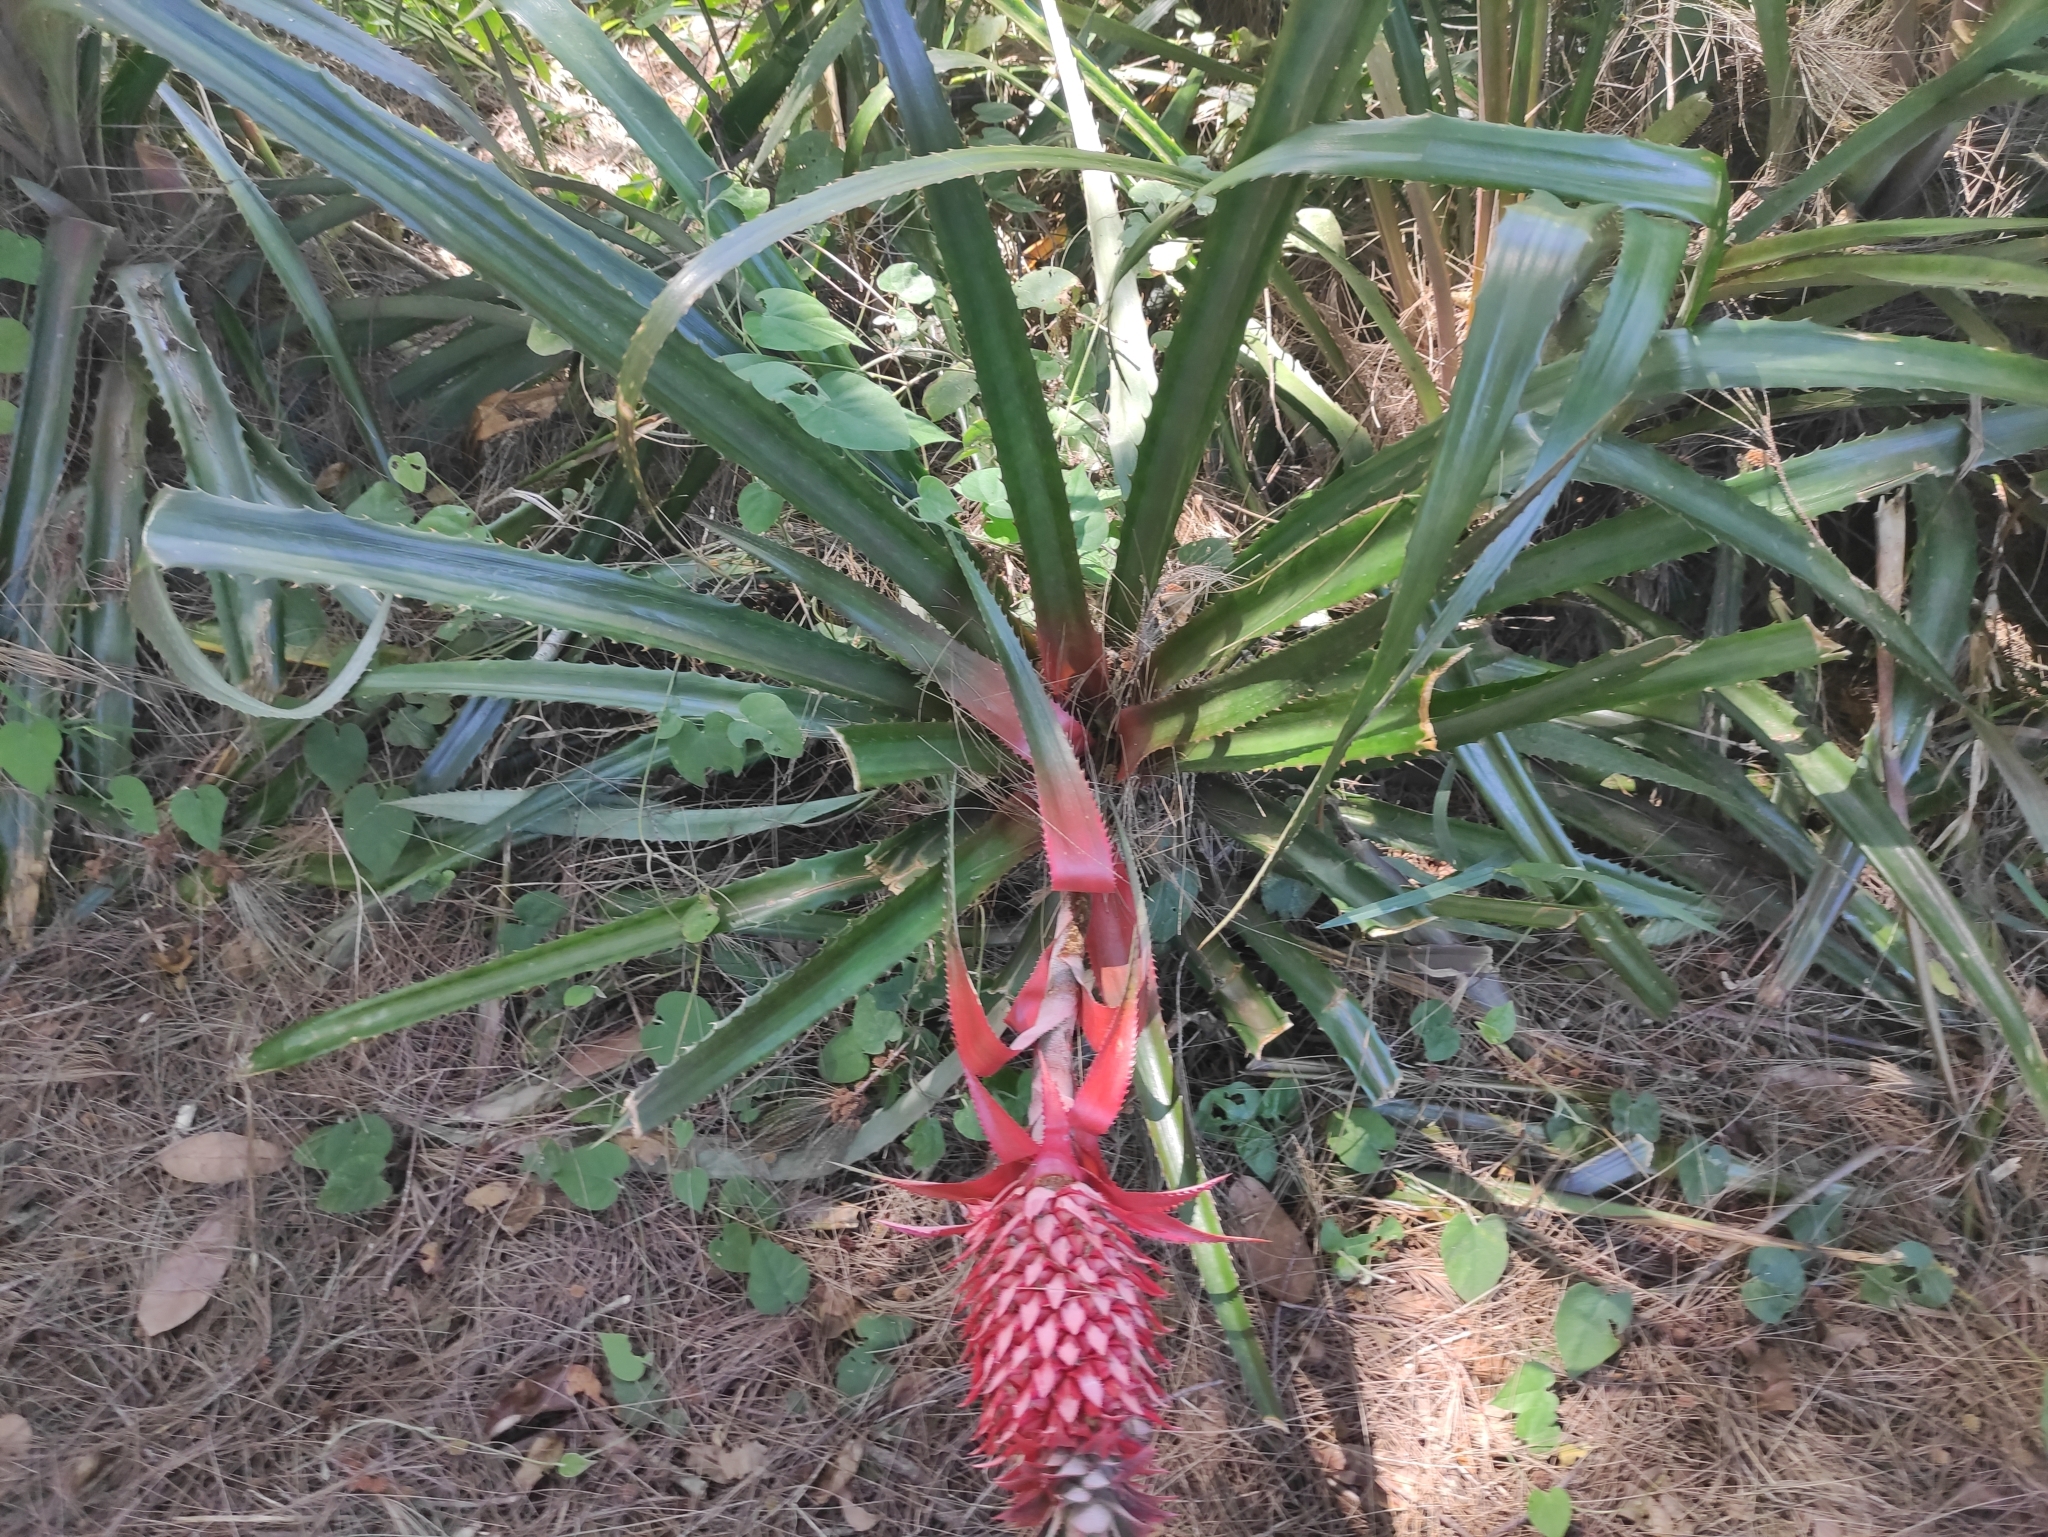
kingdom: Plantae
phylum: Tracheophyta
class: Liliopsida
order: Poales
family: Bromeliaceae
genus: Ananas
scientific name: Ananas comosus
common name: Pineapple
